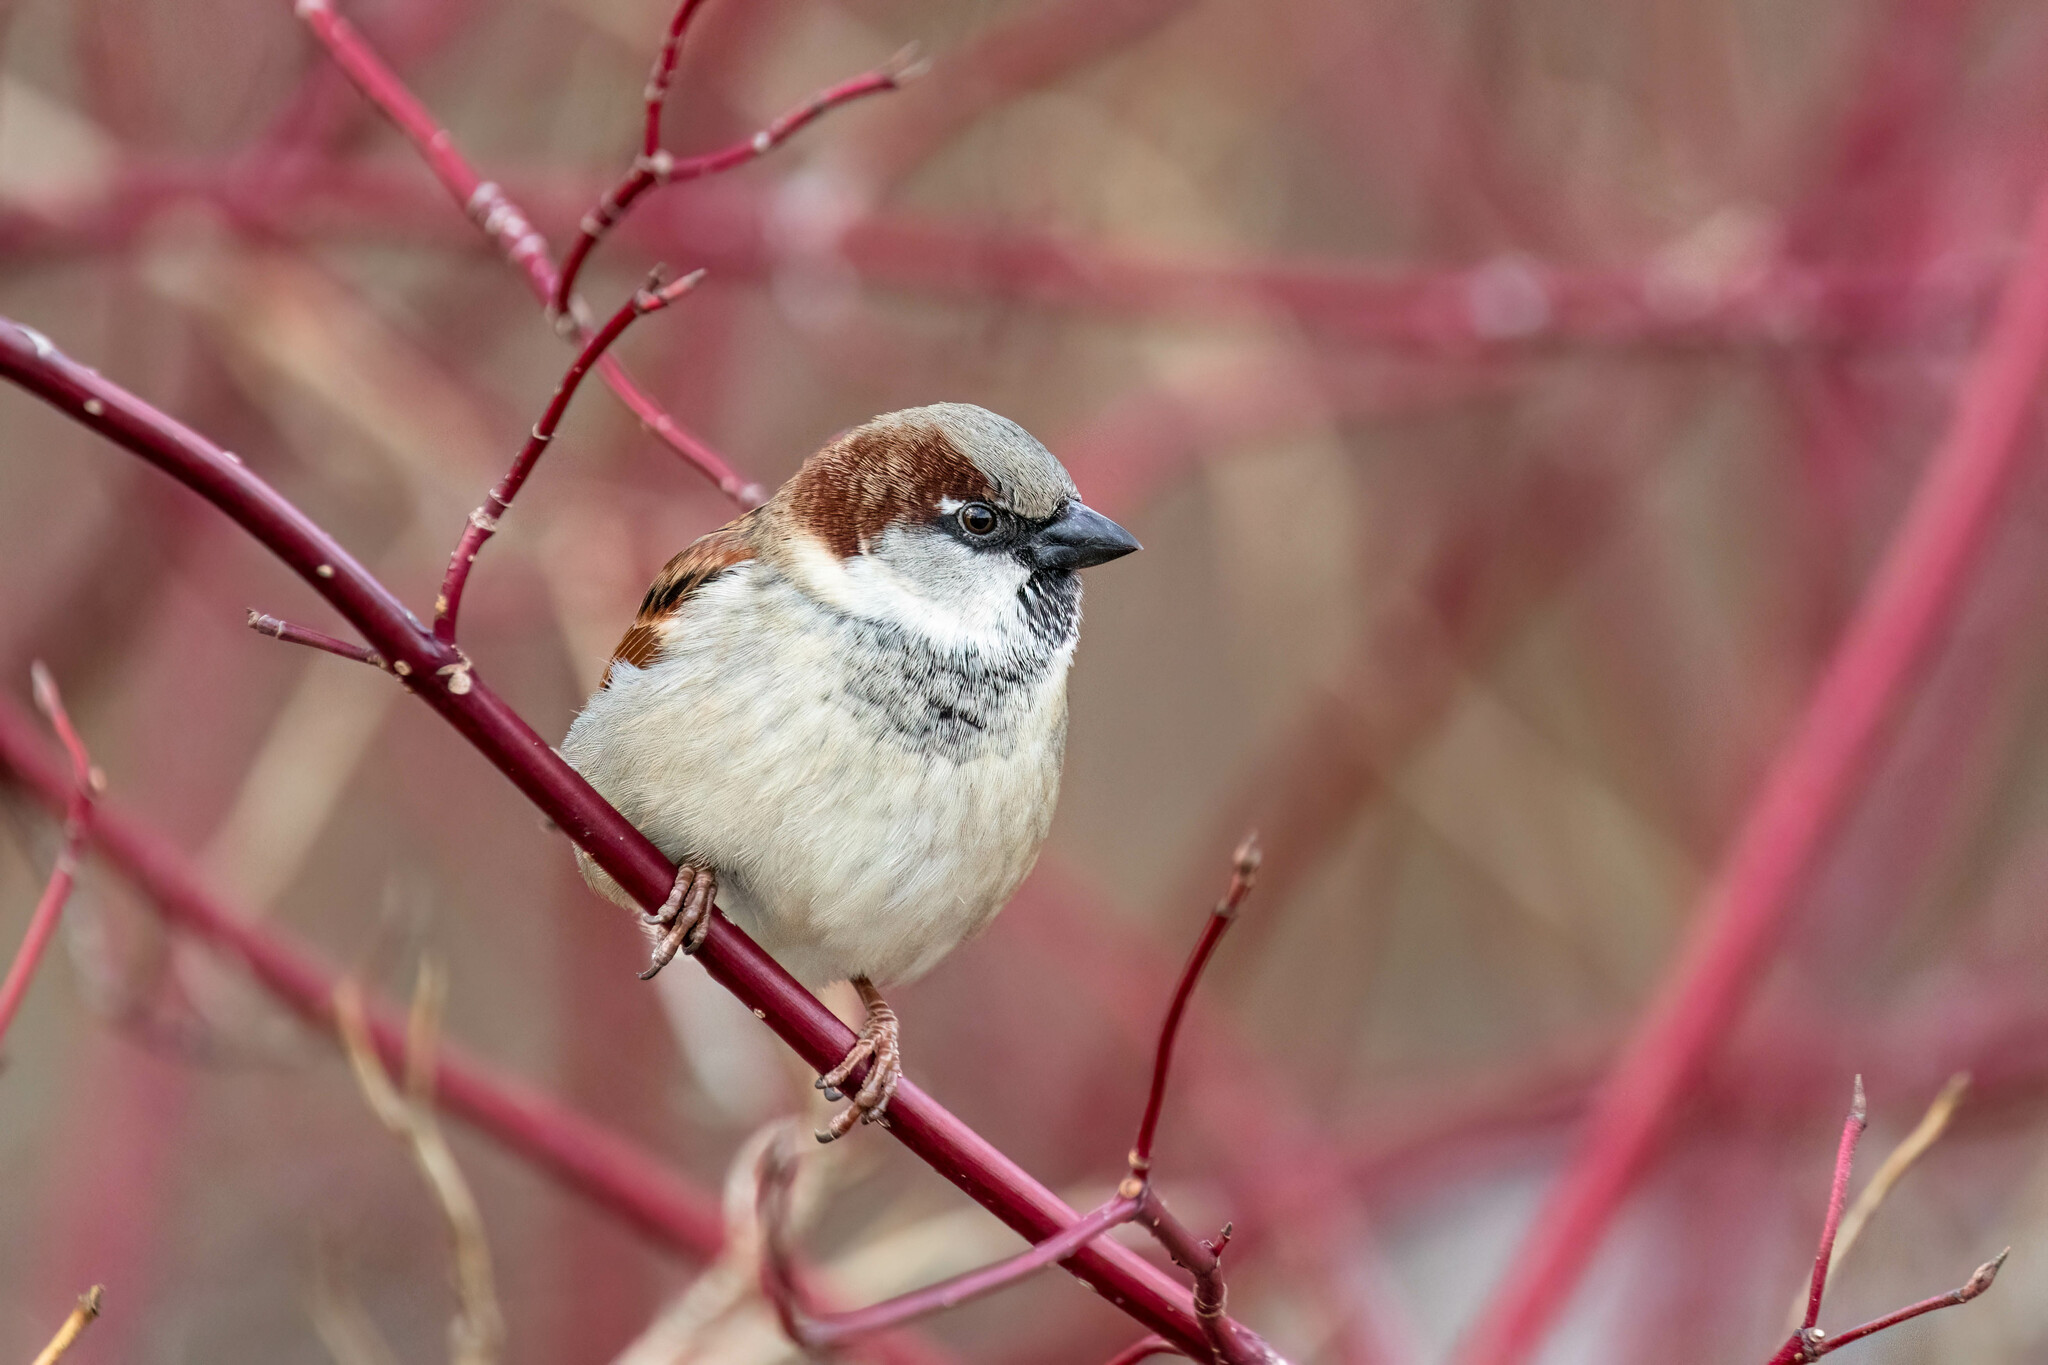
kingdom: Animalia
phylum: Chordata
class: Aves
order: Passeriformes
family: Passeridae
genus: Passer
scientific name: Passer domesticus
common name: House sparrow
